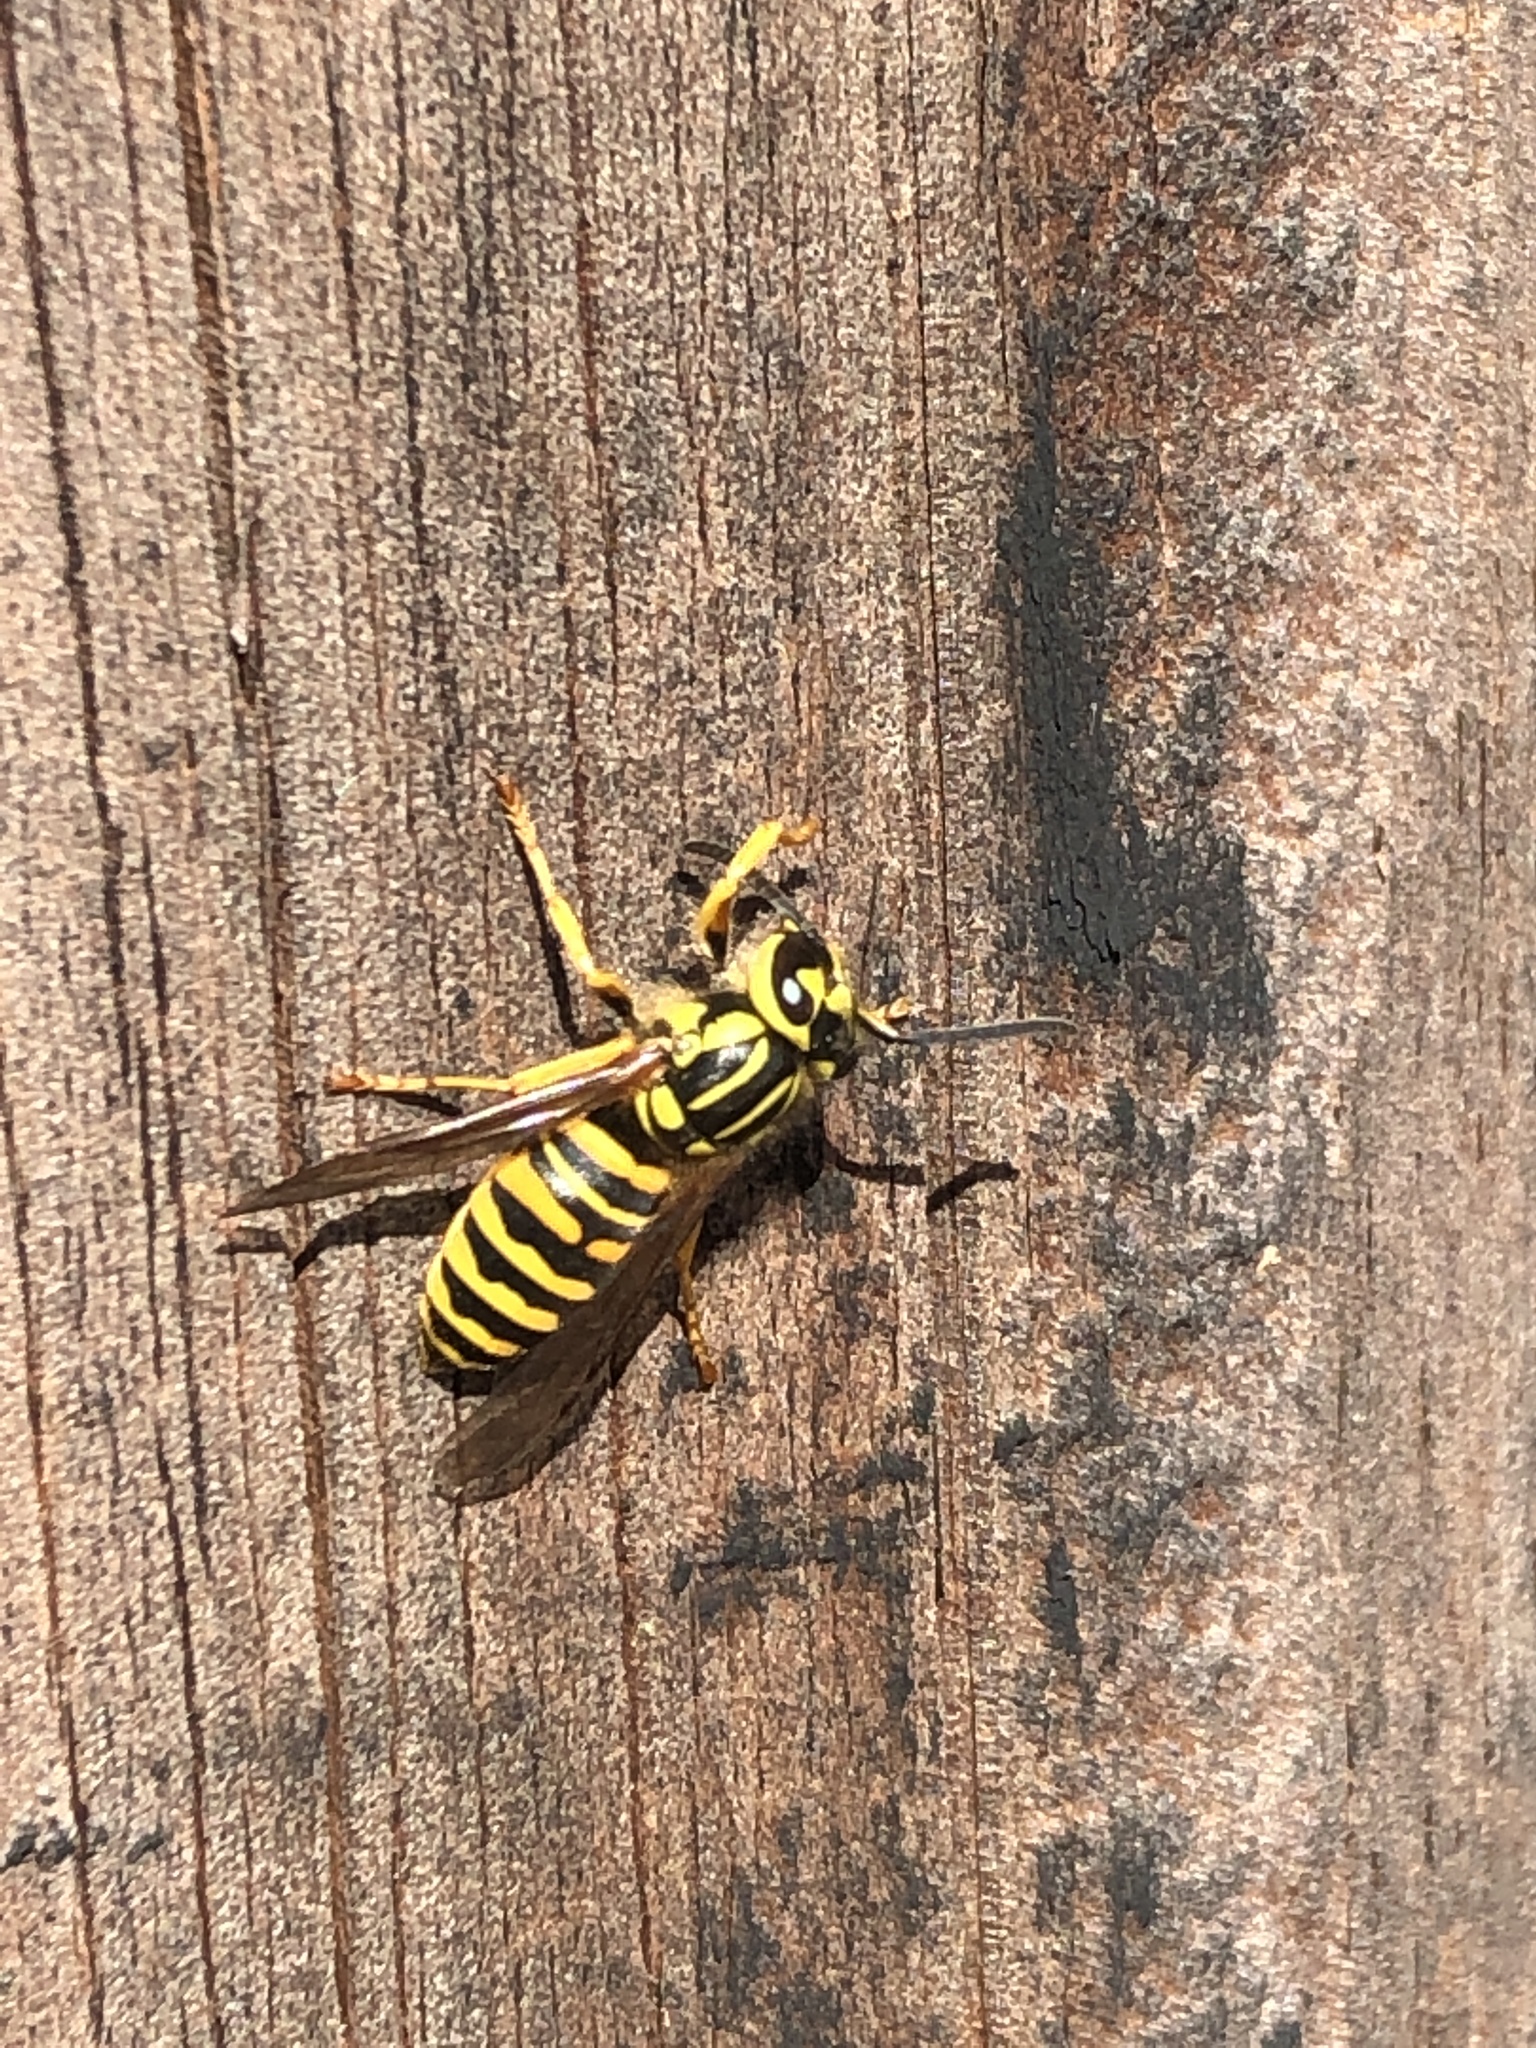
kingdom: Animalia
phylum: Arthropoda
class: Insecta
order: Hymenoptera
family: Vespidae
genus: Vespula
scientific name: Vespula squamosa
